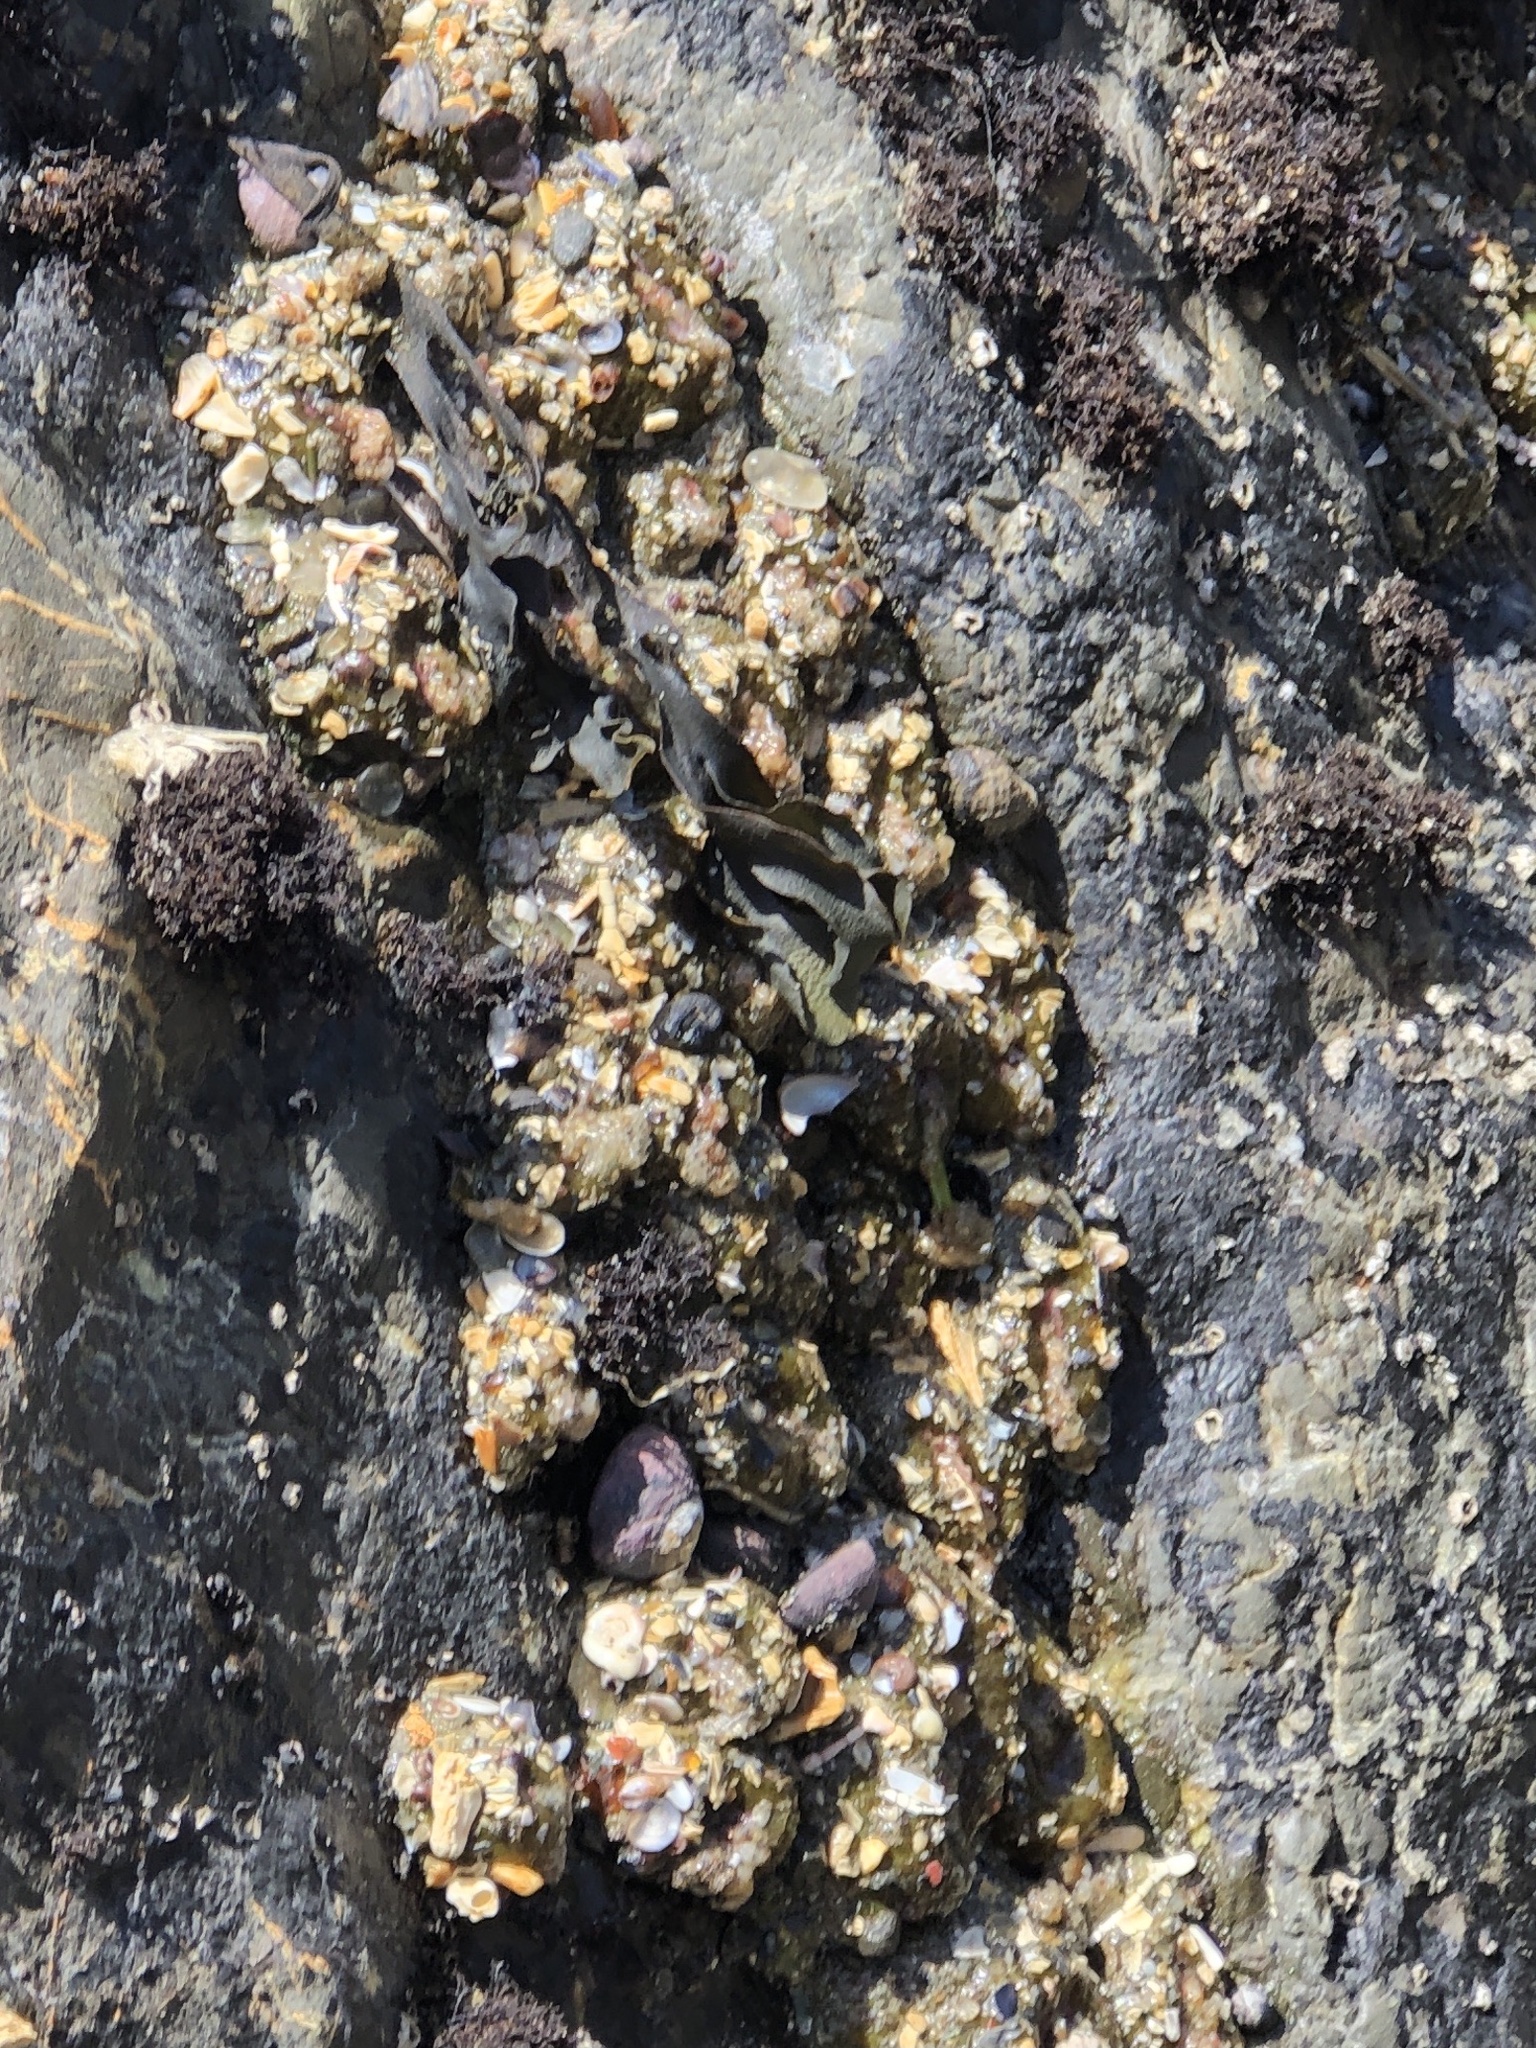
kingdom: Animalia
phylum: Cnidaria
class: Anthozoa
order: Actiniaria
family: Actiniidae
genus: Anthopleura
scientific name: Anthopleura elegantissima
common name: Clonal anemone
